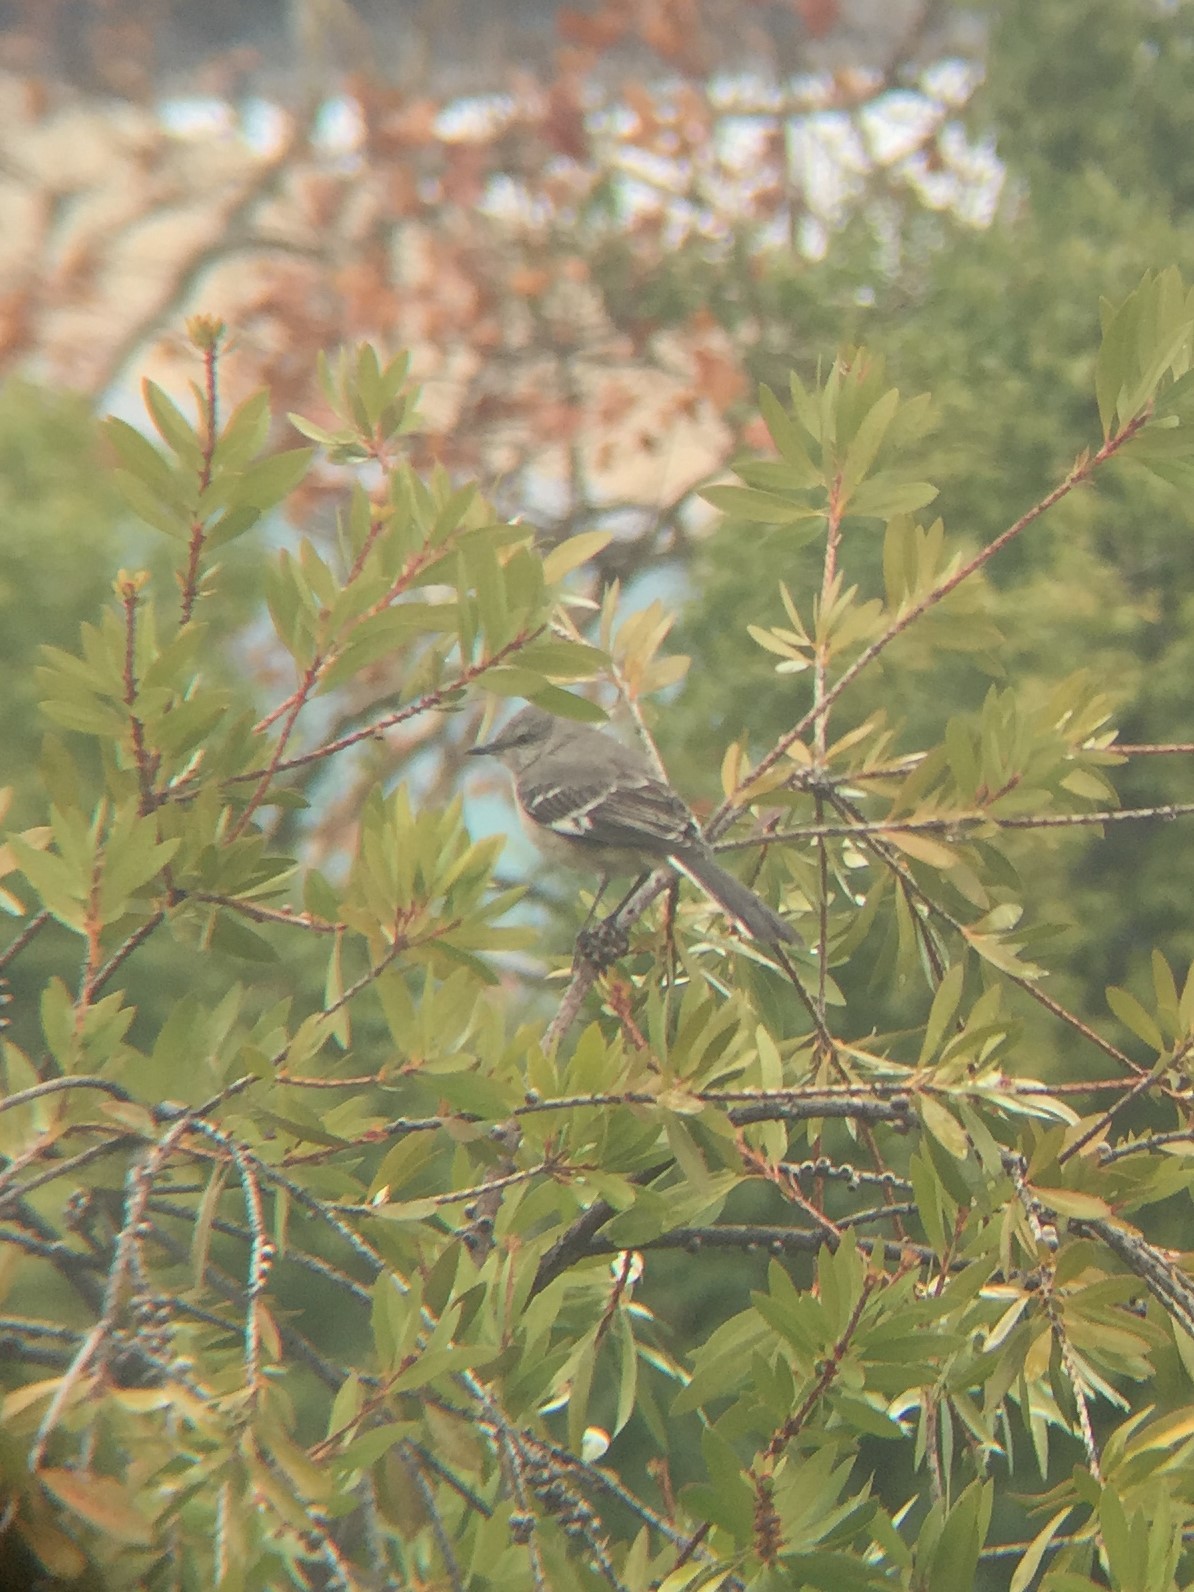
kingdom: Animalia
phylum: Chordata
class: Aves
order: Passeriformes
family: Mimidae
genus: Mimus
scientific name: Mimus polyglottos
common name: Northern mockingbird
